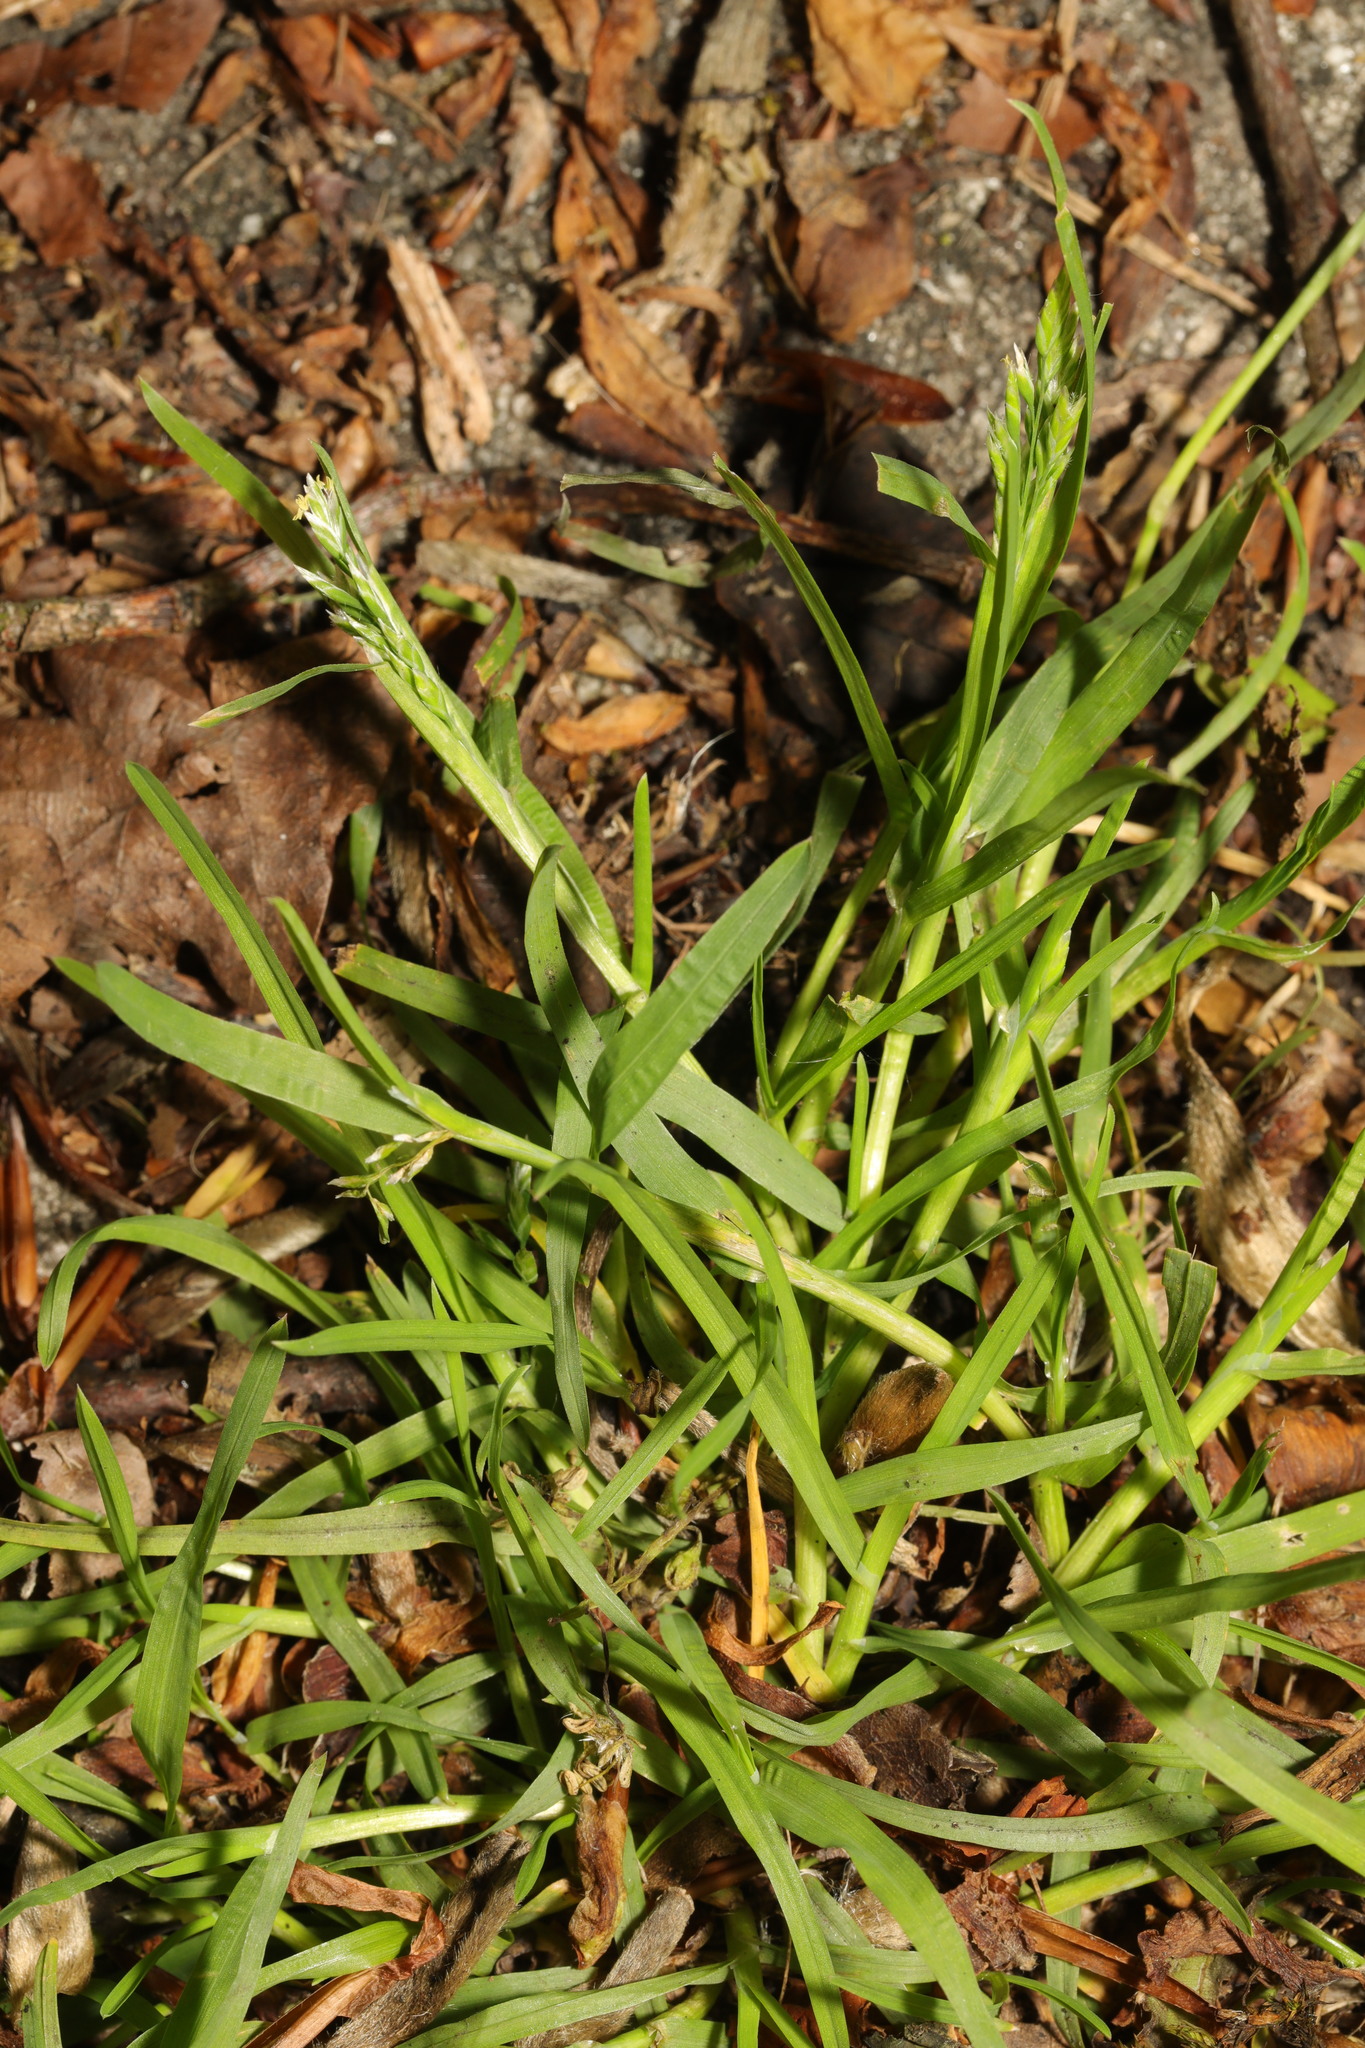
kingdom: Plantae
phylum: Tracheophyta
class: Liliopsida
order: Poales
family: Poaceae
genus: Poa
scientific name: Poa annua
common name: Annual bluegrass
